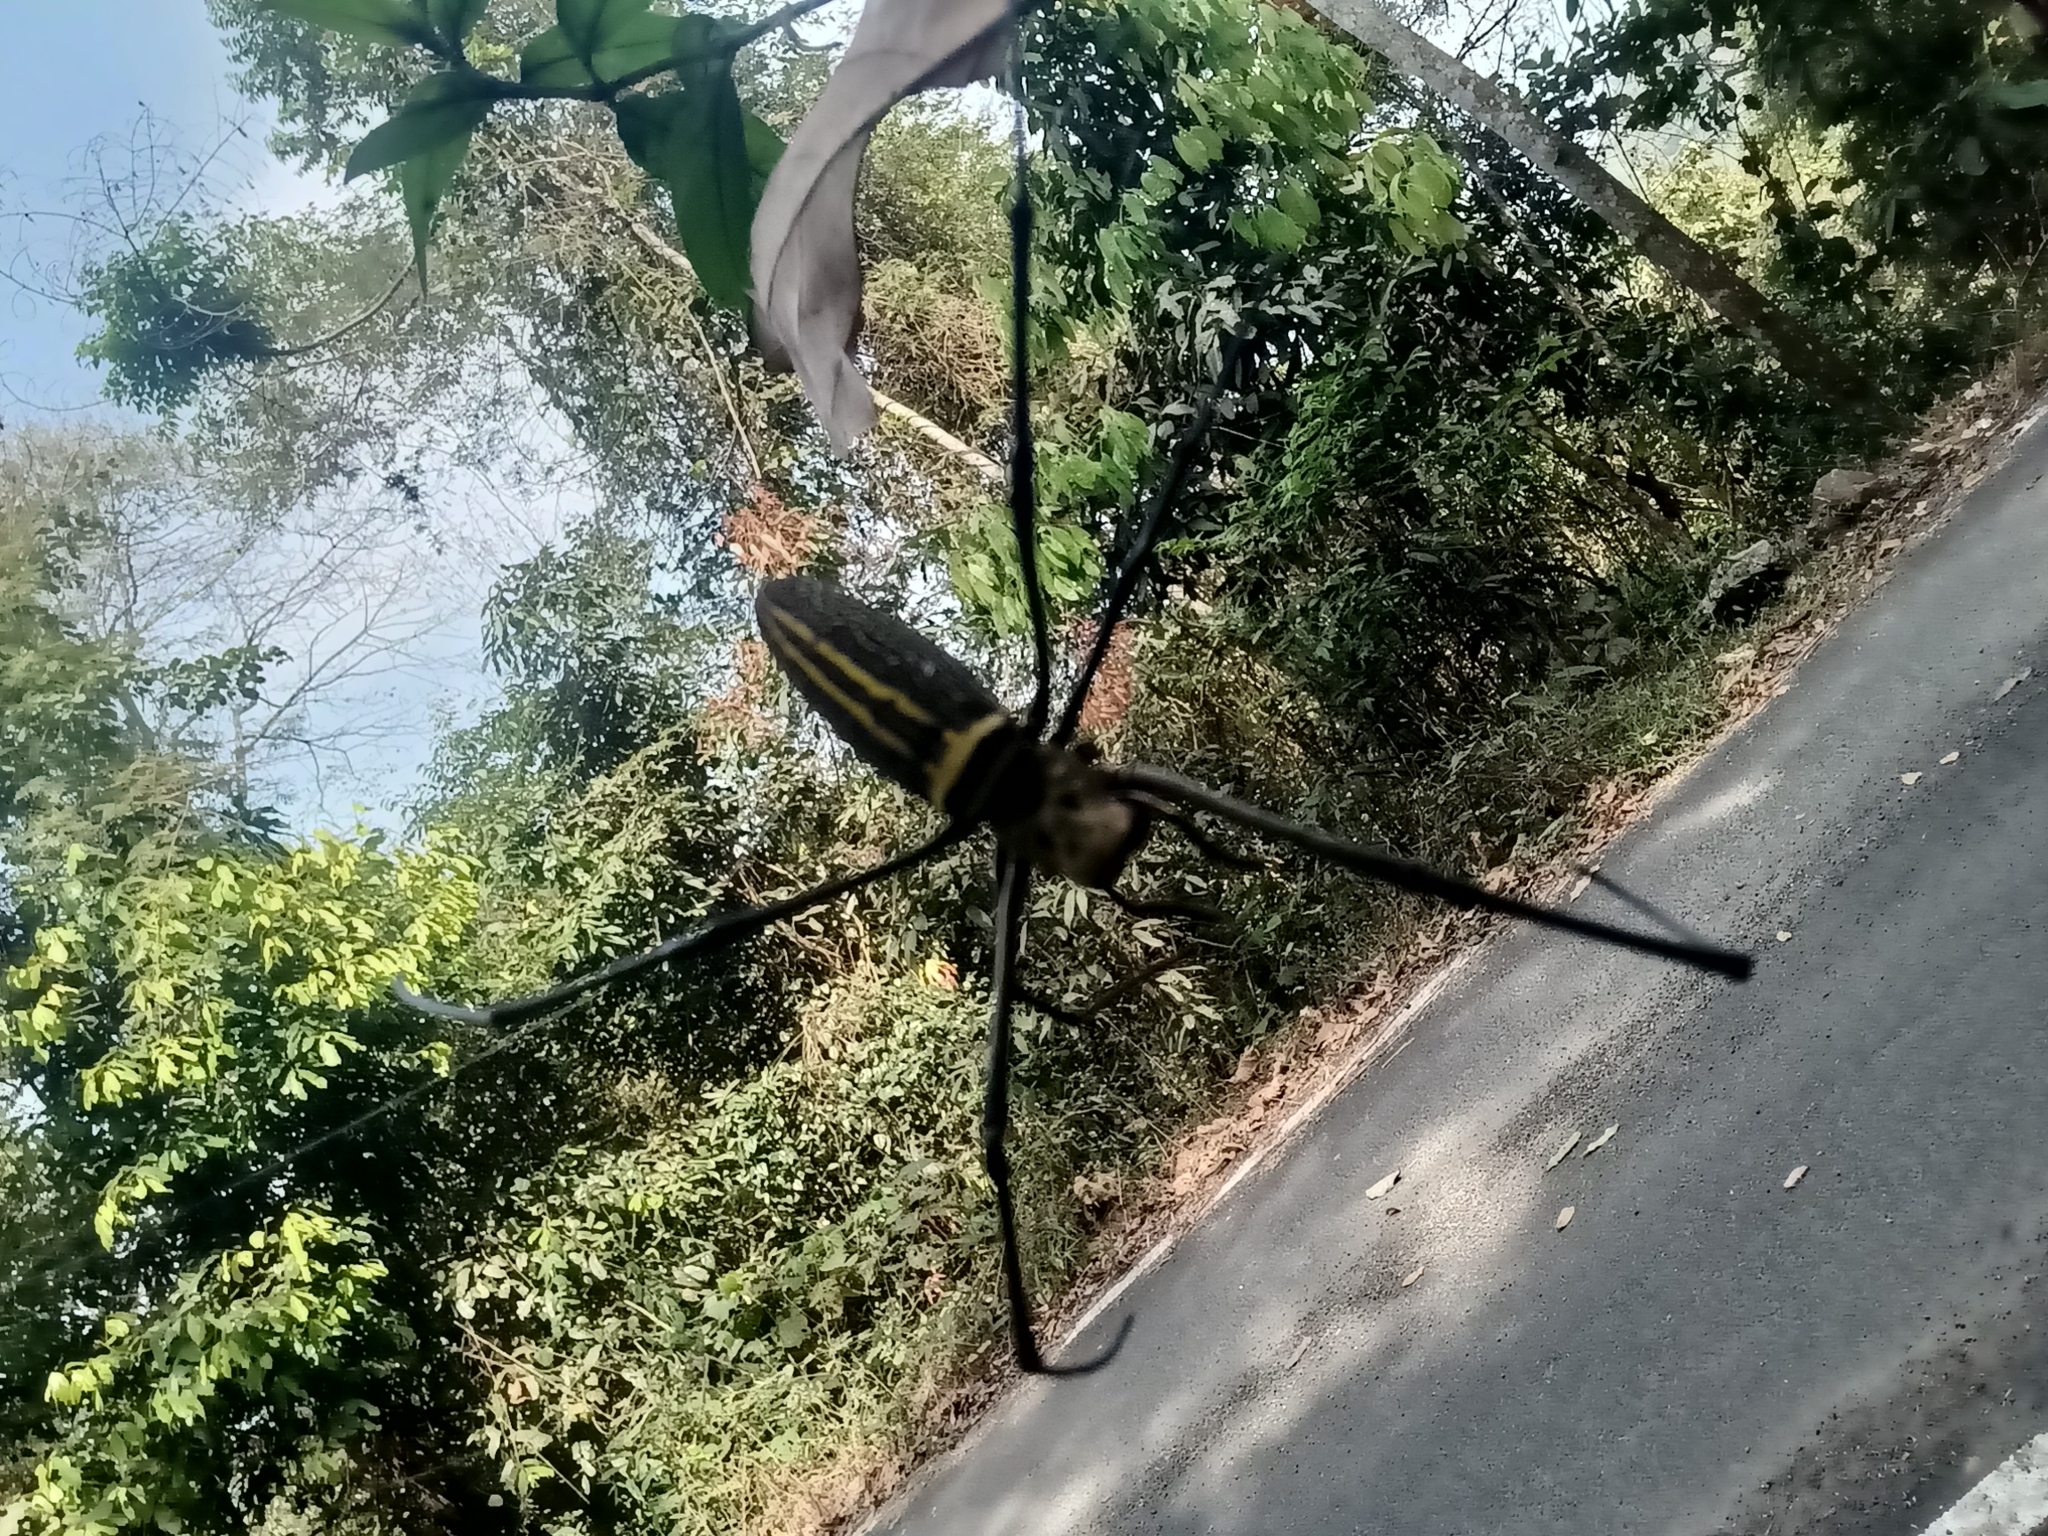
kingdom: Animalia
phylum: Arthropoda
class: Arachnida
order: Araneae
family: Araneidae
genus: Nephila
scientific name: Nephila pilipes
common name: Giant golden orb weaver
